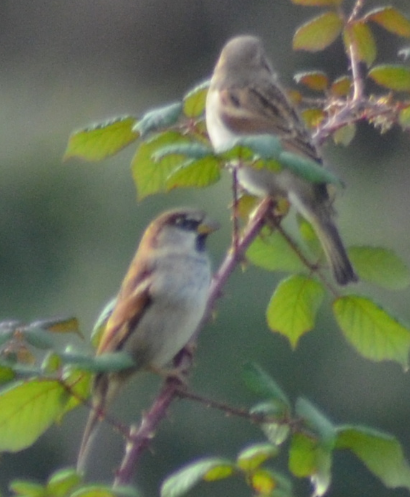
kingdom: Animalia
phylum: Chordata
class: Aves
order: Passeriformes
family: Passeridae
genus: Passer
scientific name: Passer domesticus
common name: House sparrow
